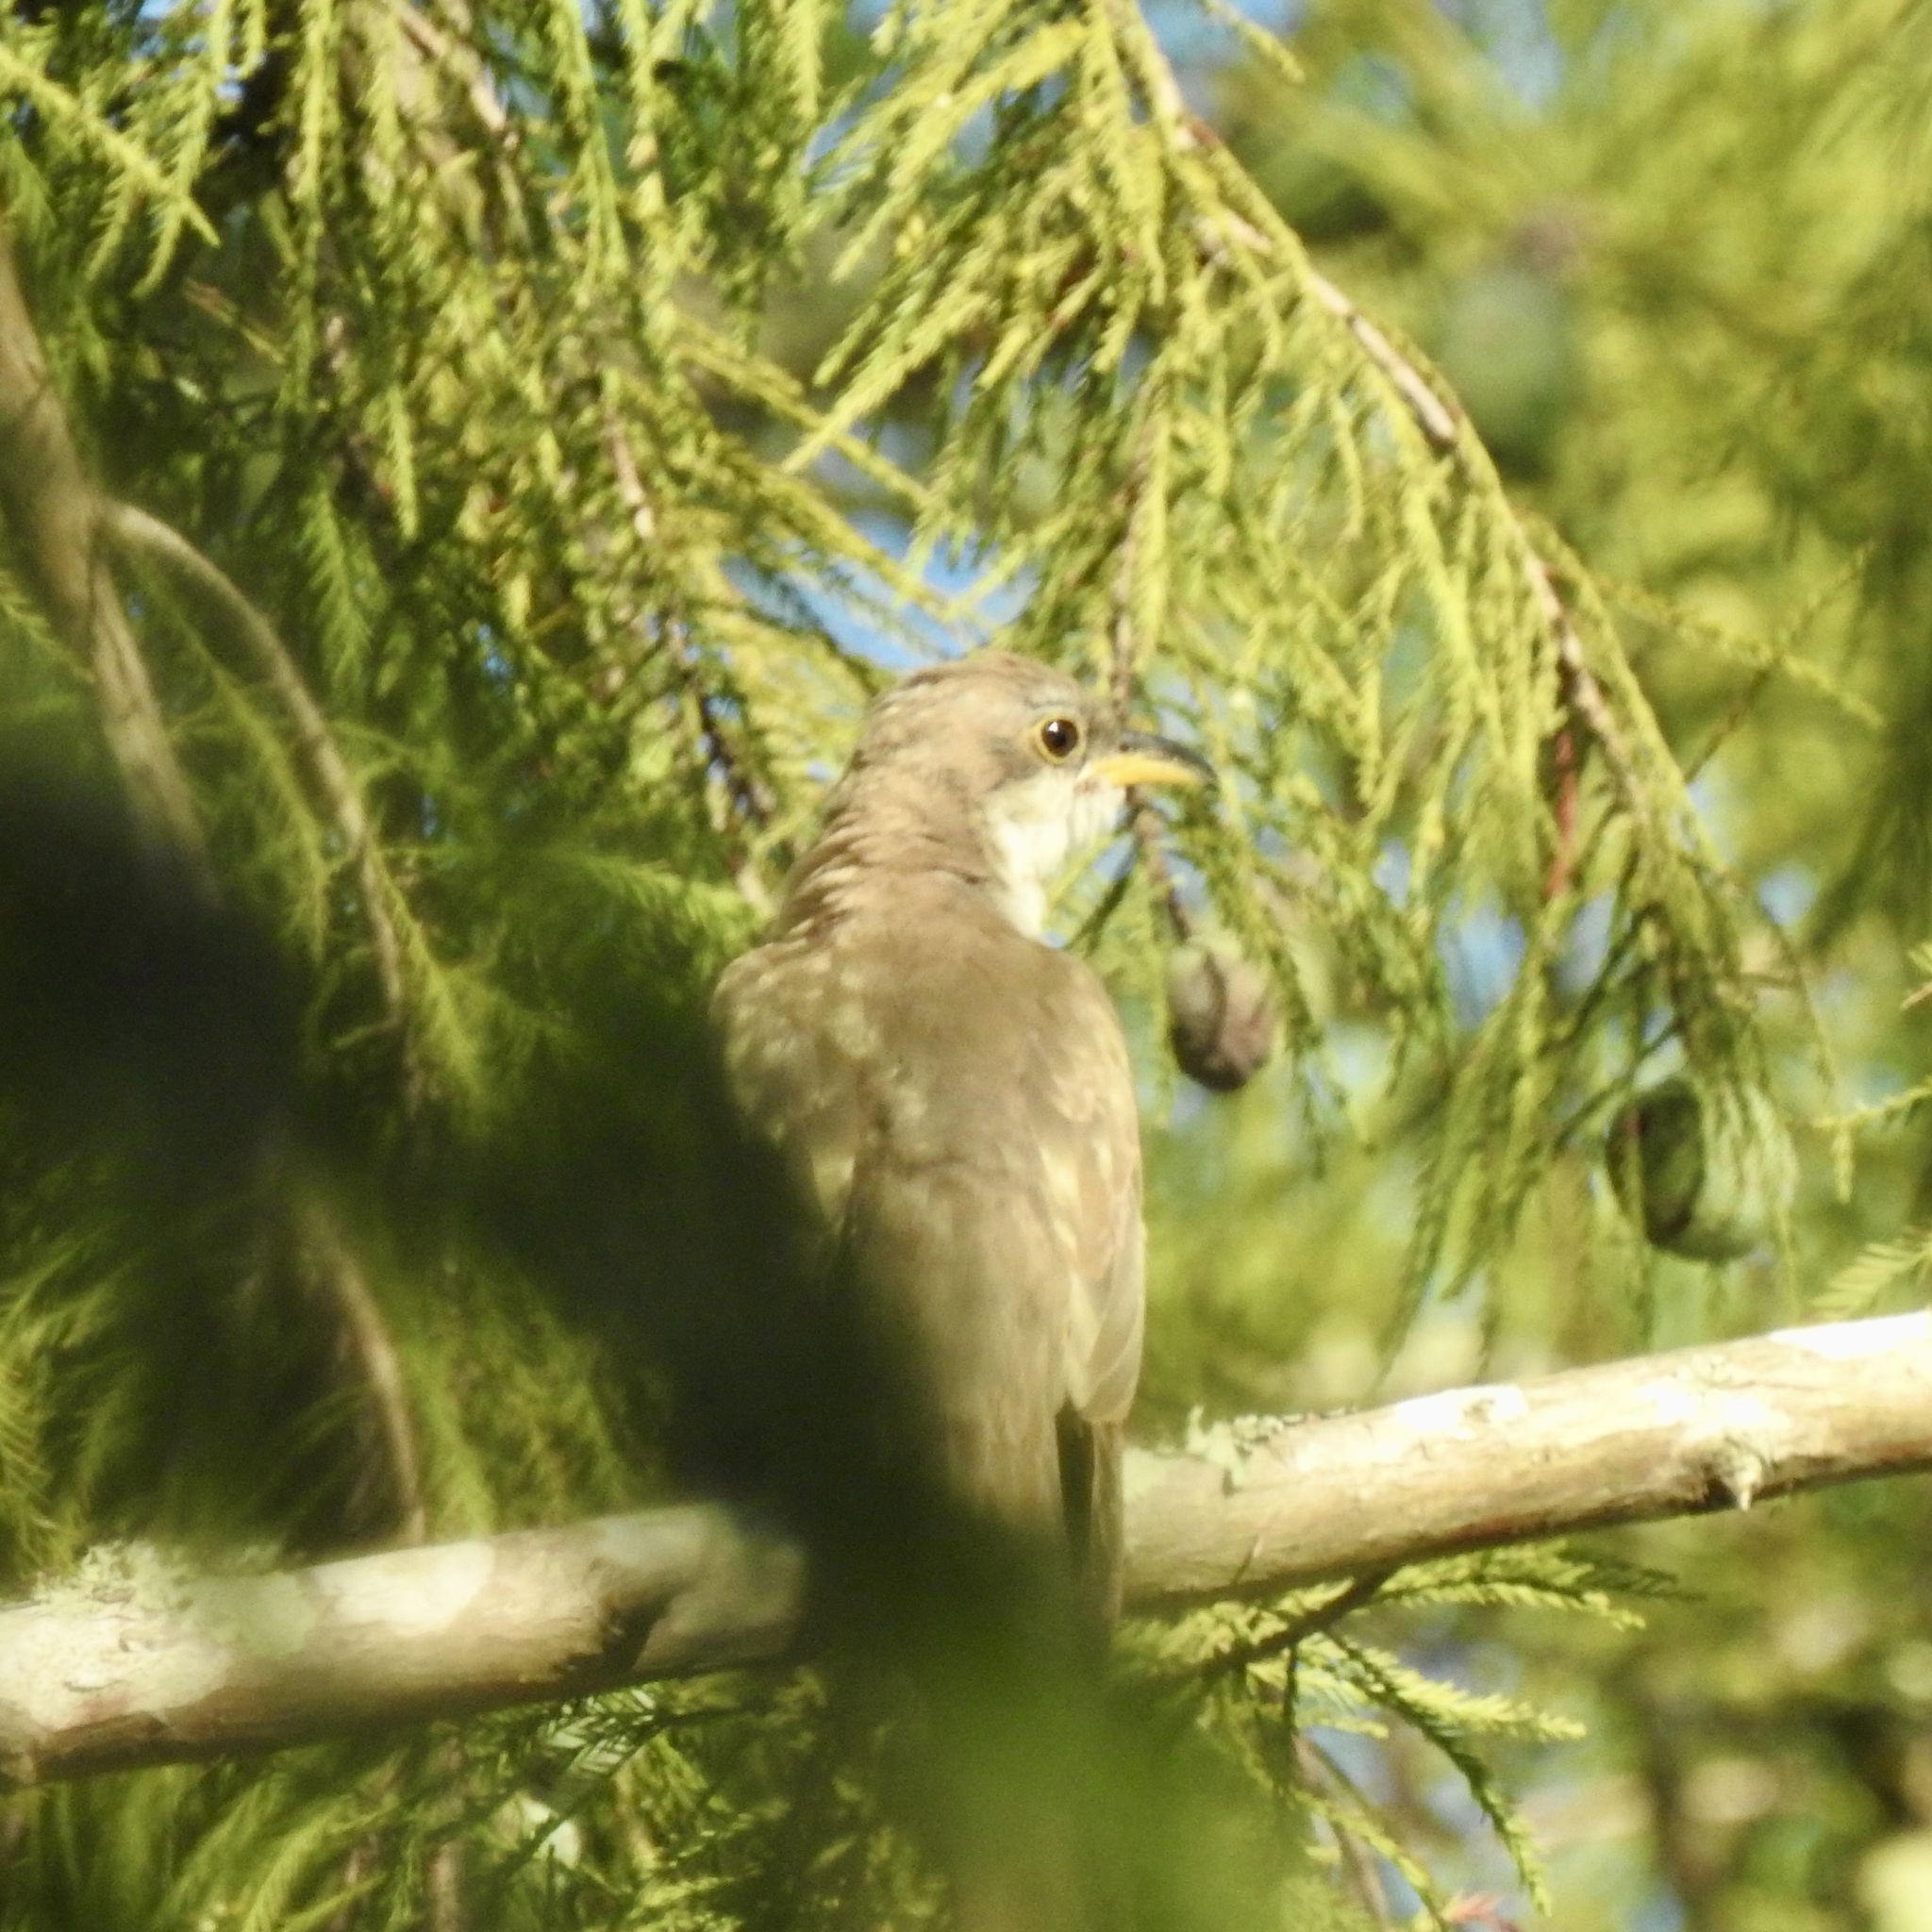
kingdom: Animalia
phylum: Chordata
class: Aves
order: Cuculiformes
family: Cuculidae
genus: Coccyzus
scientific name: Coccyzus americanus
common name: Yellow-billed cuckoo
